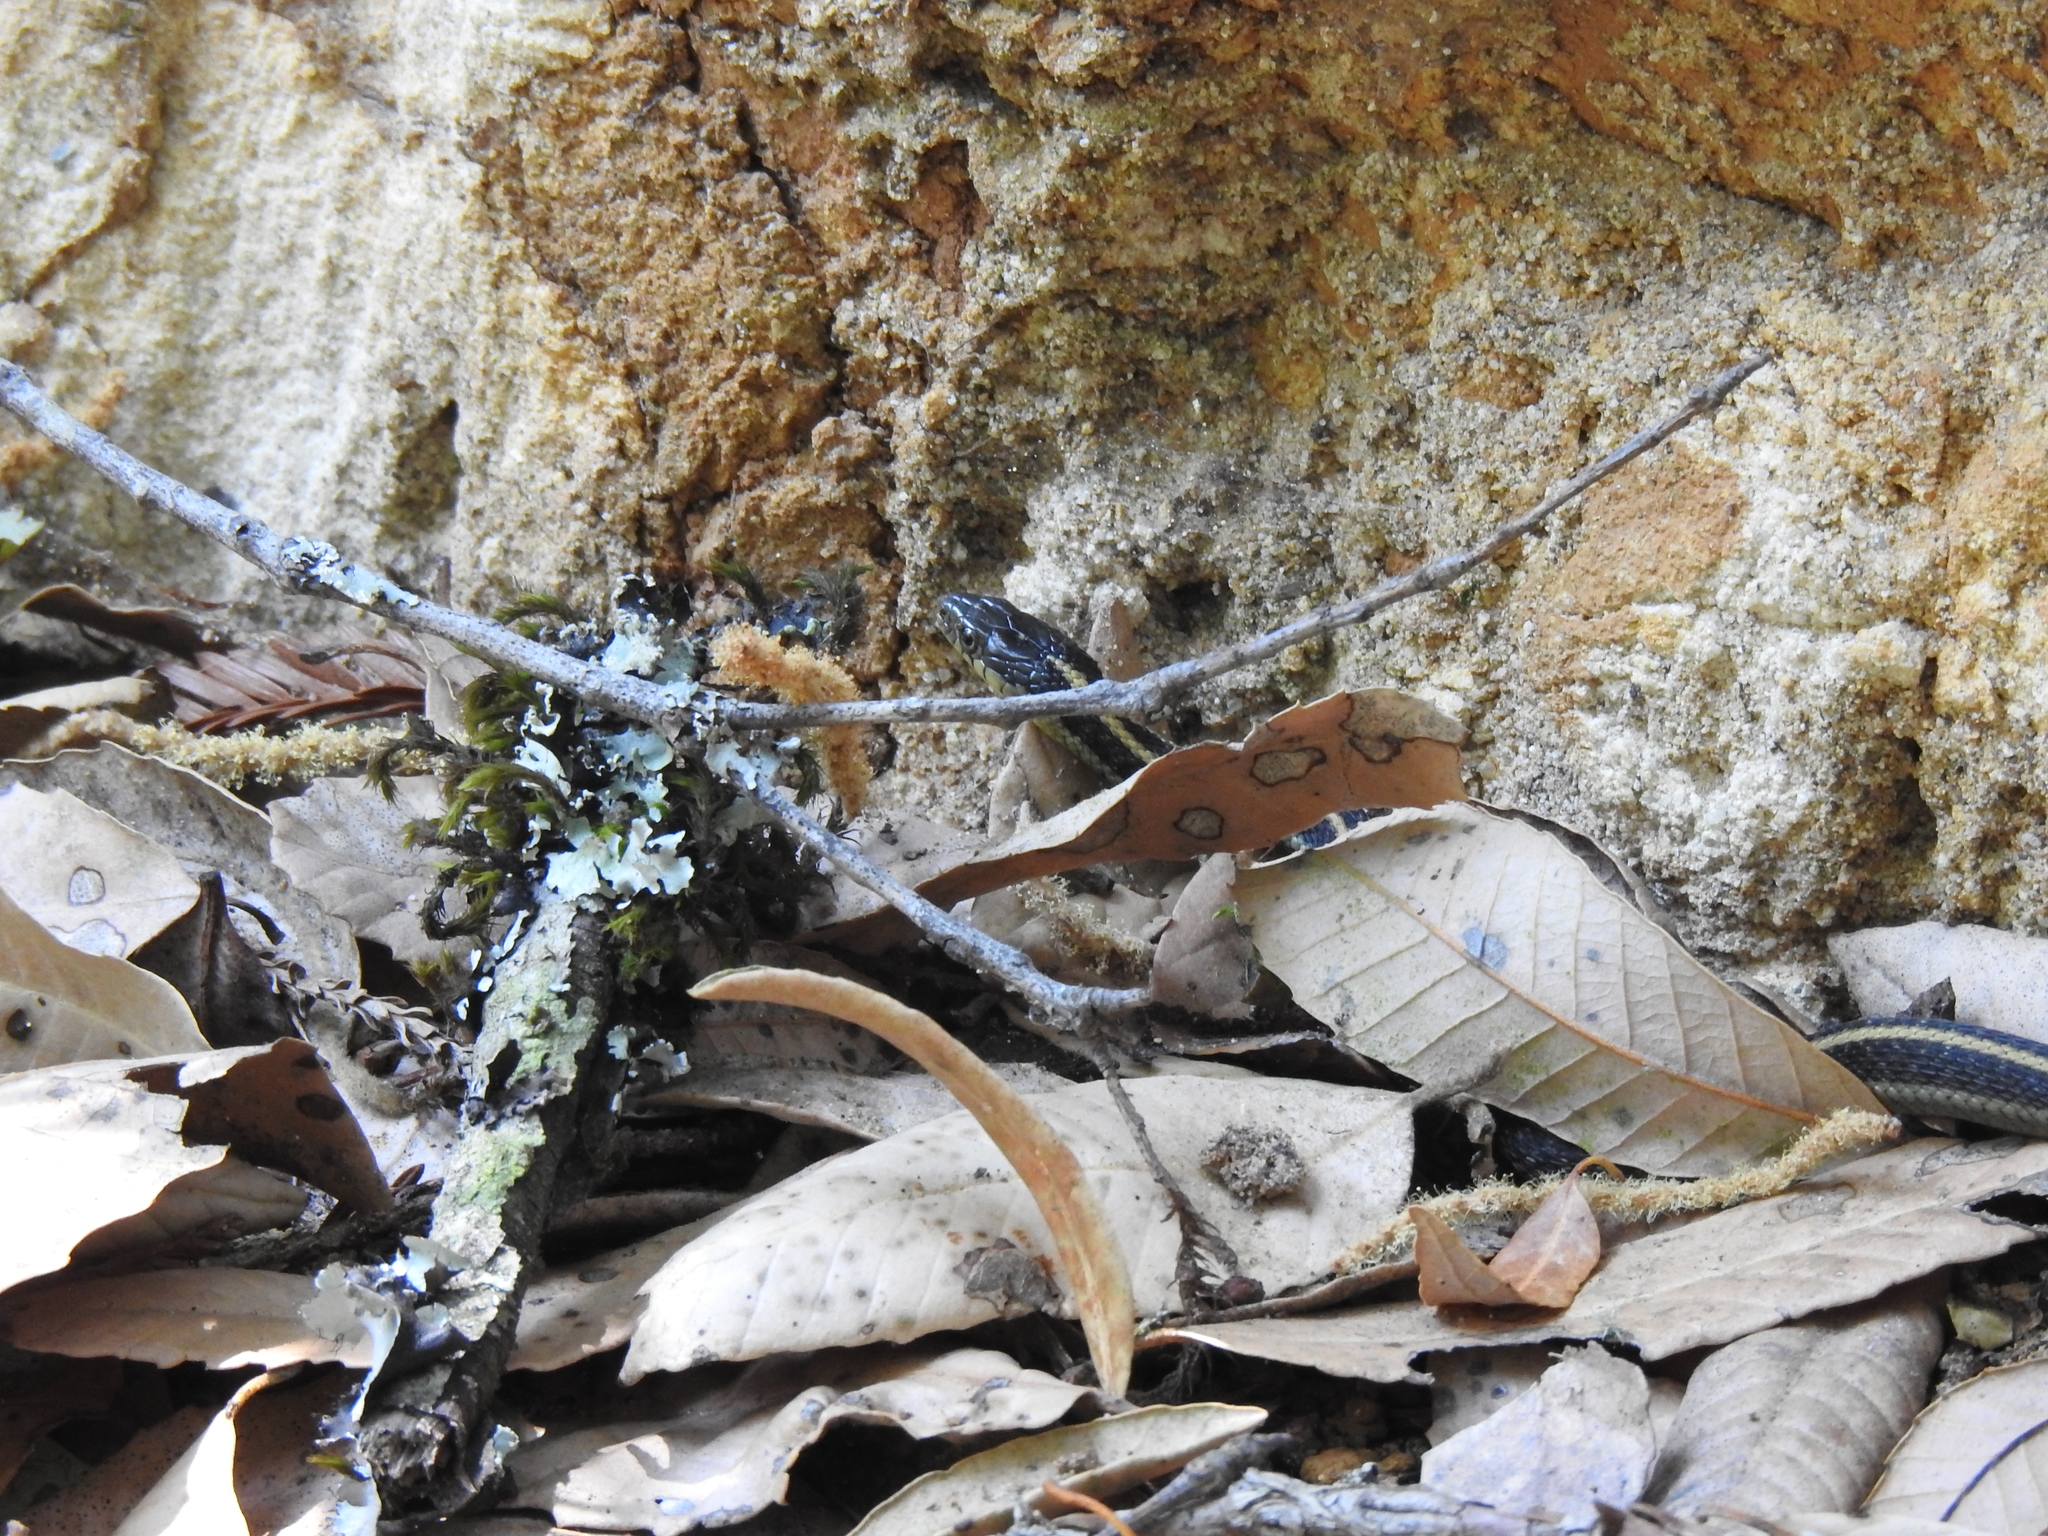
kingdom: Animalia
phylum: Chordata
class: Squamata
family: Colubridae
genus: Thamnophis
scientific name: Thamnophis atratus
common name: Pacific coast aquatic garter snake
